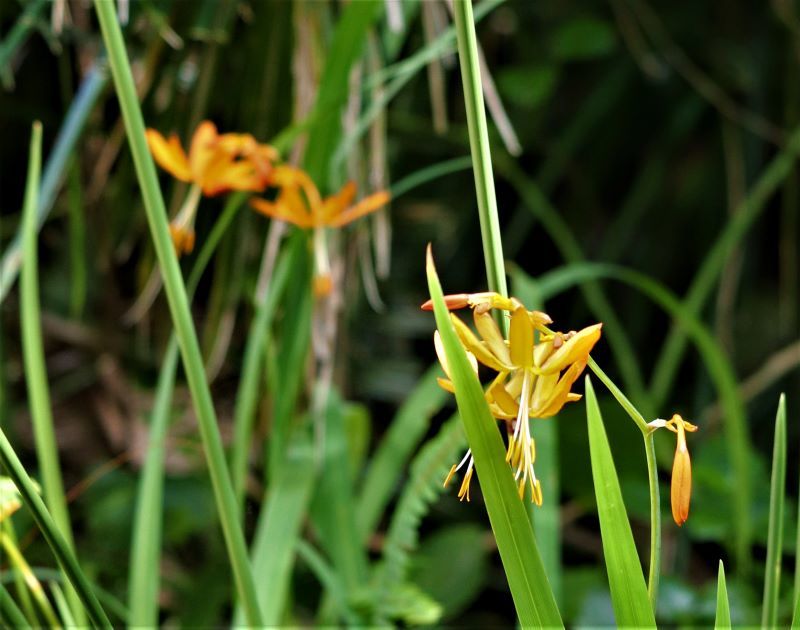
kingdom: Plantae
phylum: Tracheophyta
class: Liliopsida
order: Asparagales
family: Iridaceae
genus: Crocosmia
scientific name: Crocosmia aurea
